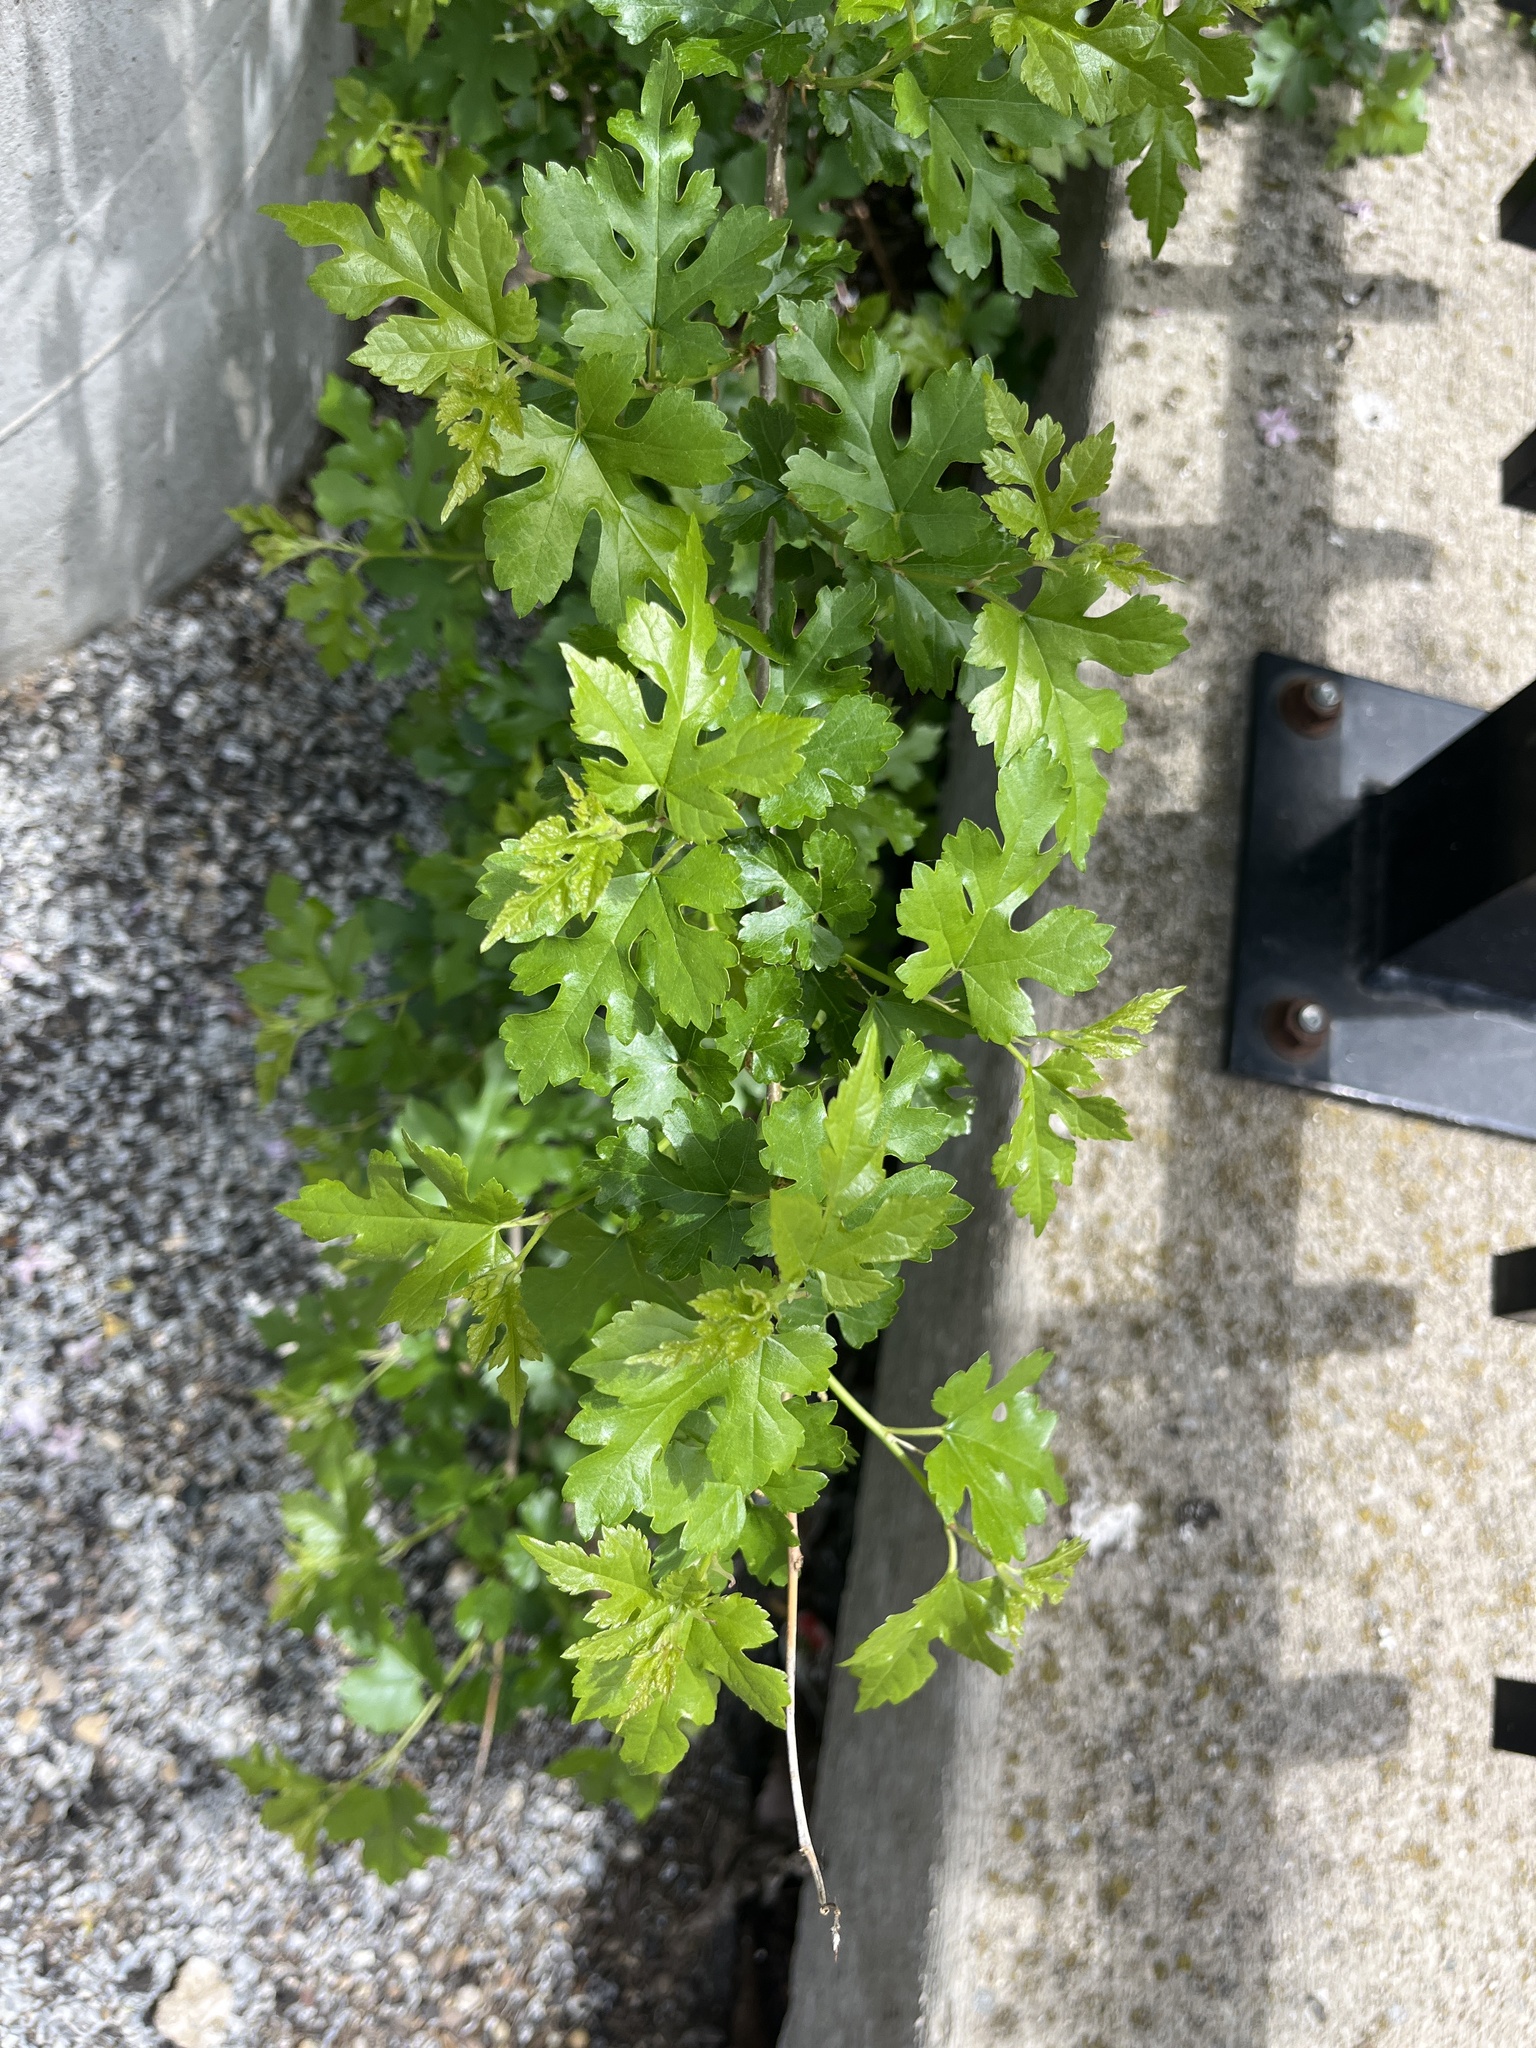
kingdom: Plantae
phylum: Tracheophyta
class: Magnoliopsida
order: Rosales
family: Moraceae
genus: Morus
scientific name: Morus alba
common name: White mulberry
